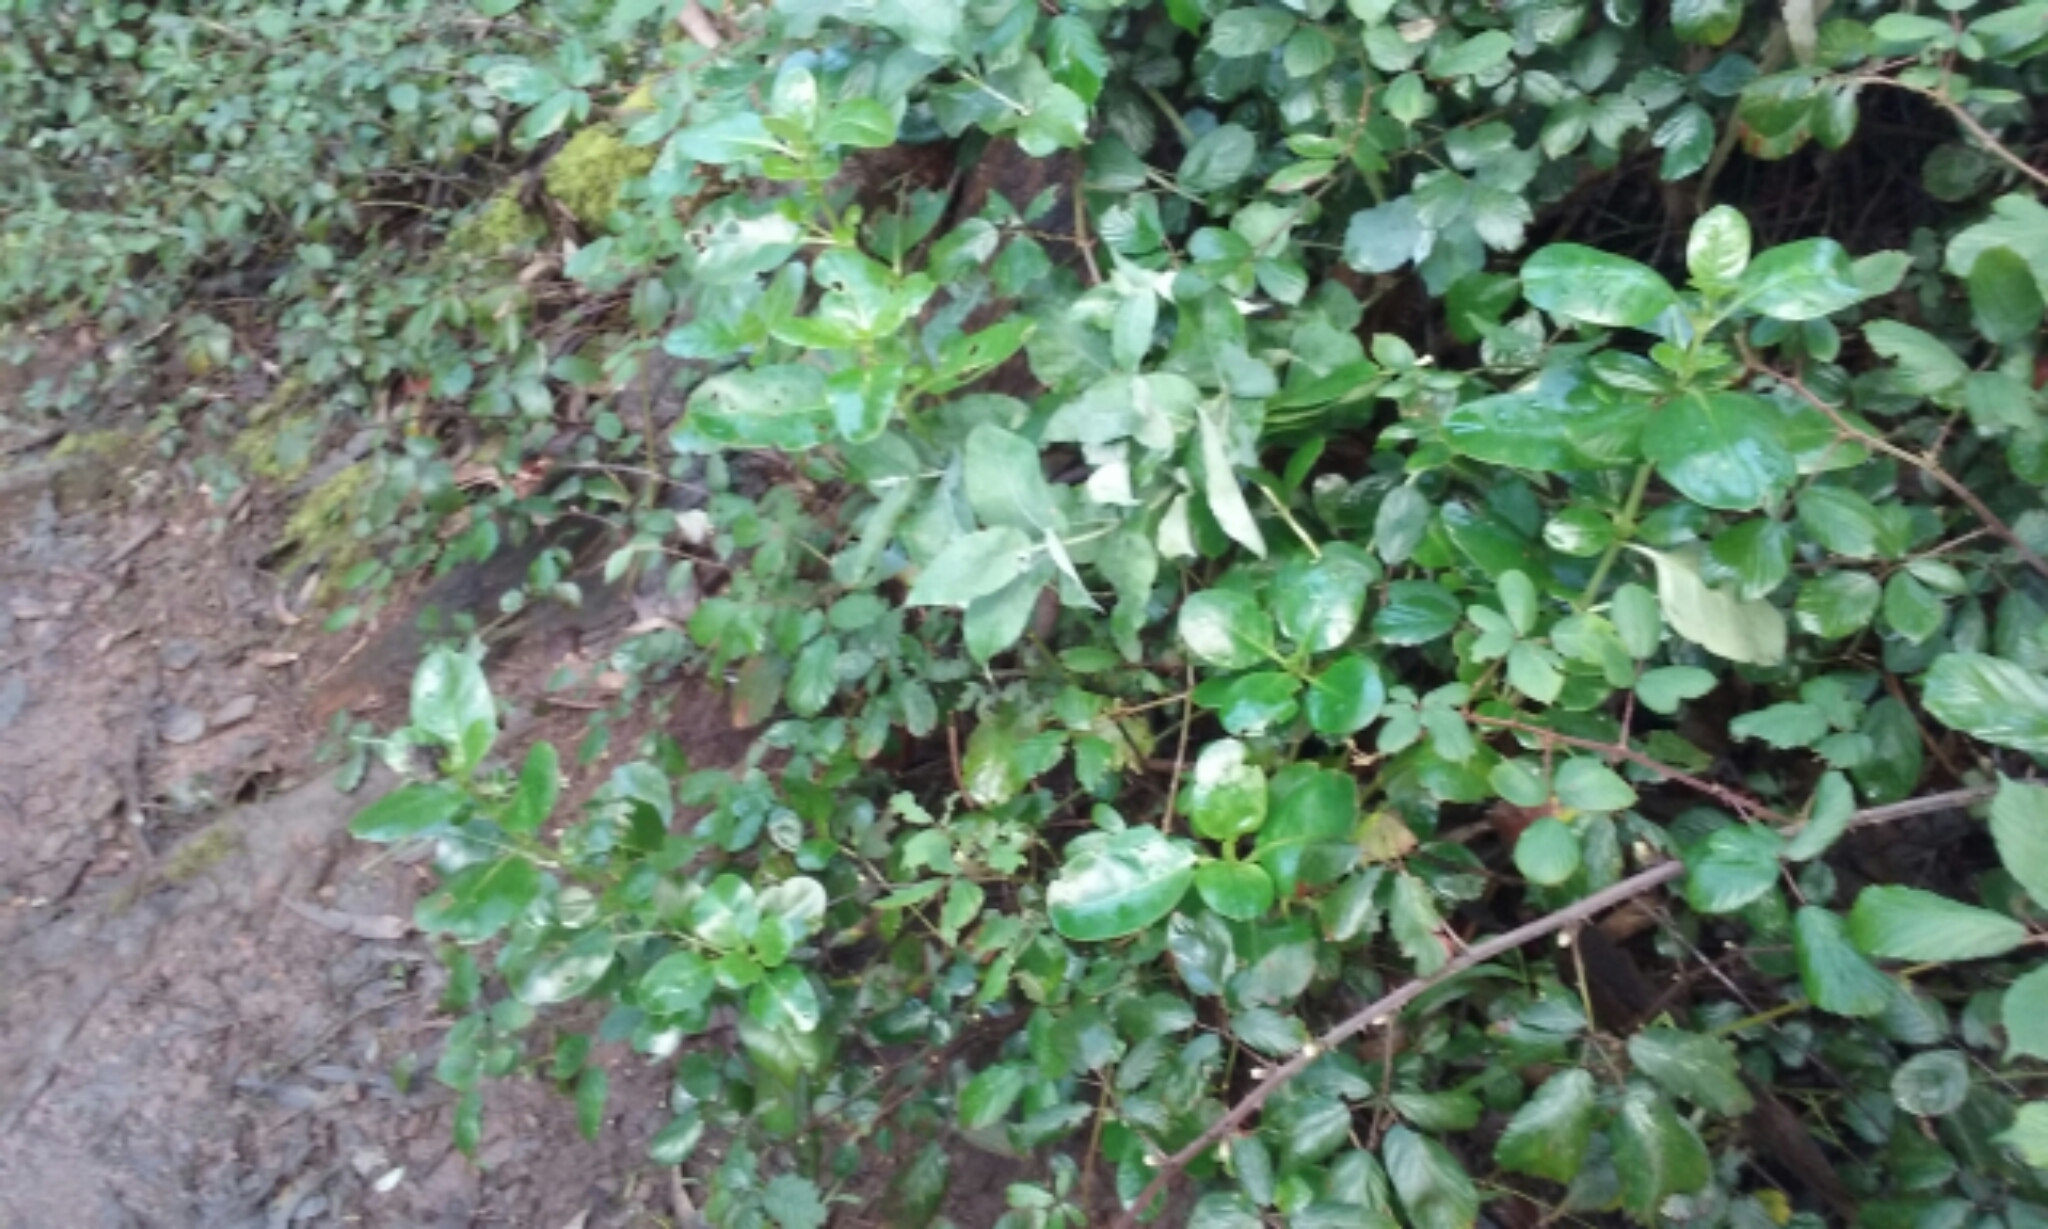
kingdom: Plantae
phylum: Tracheophyta
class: Magnoliopsida
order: Gentianales
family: Rubiaceae
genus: Coprosma
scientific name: Coprosma repens
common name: Tree bedstraw
